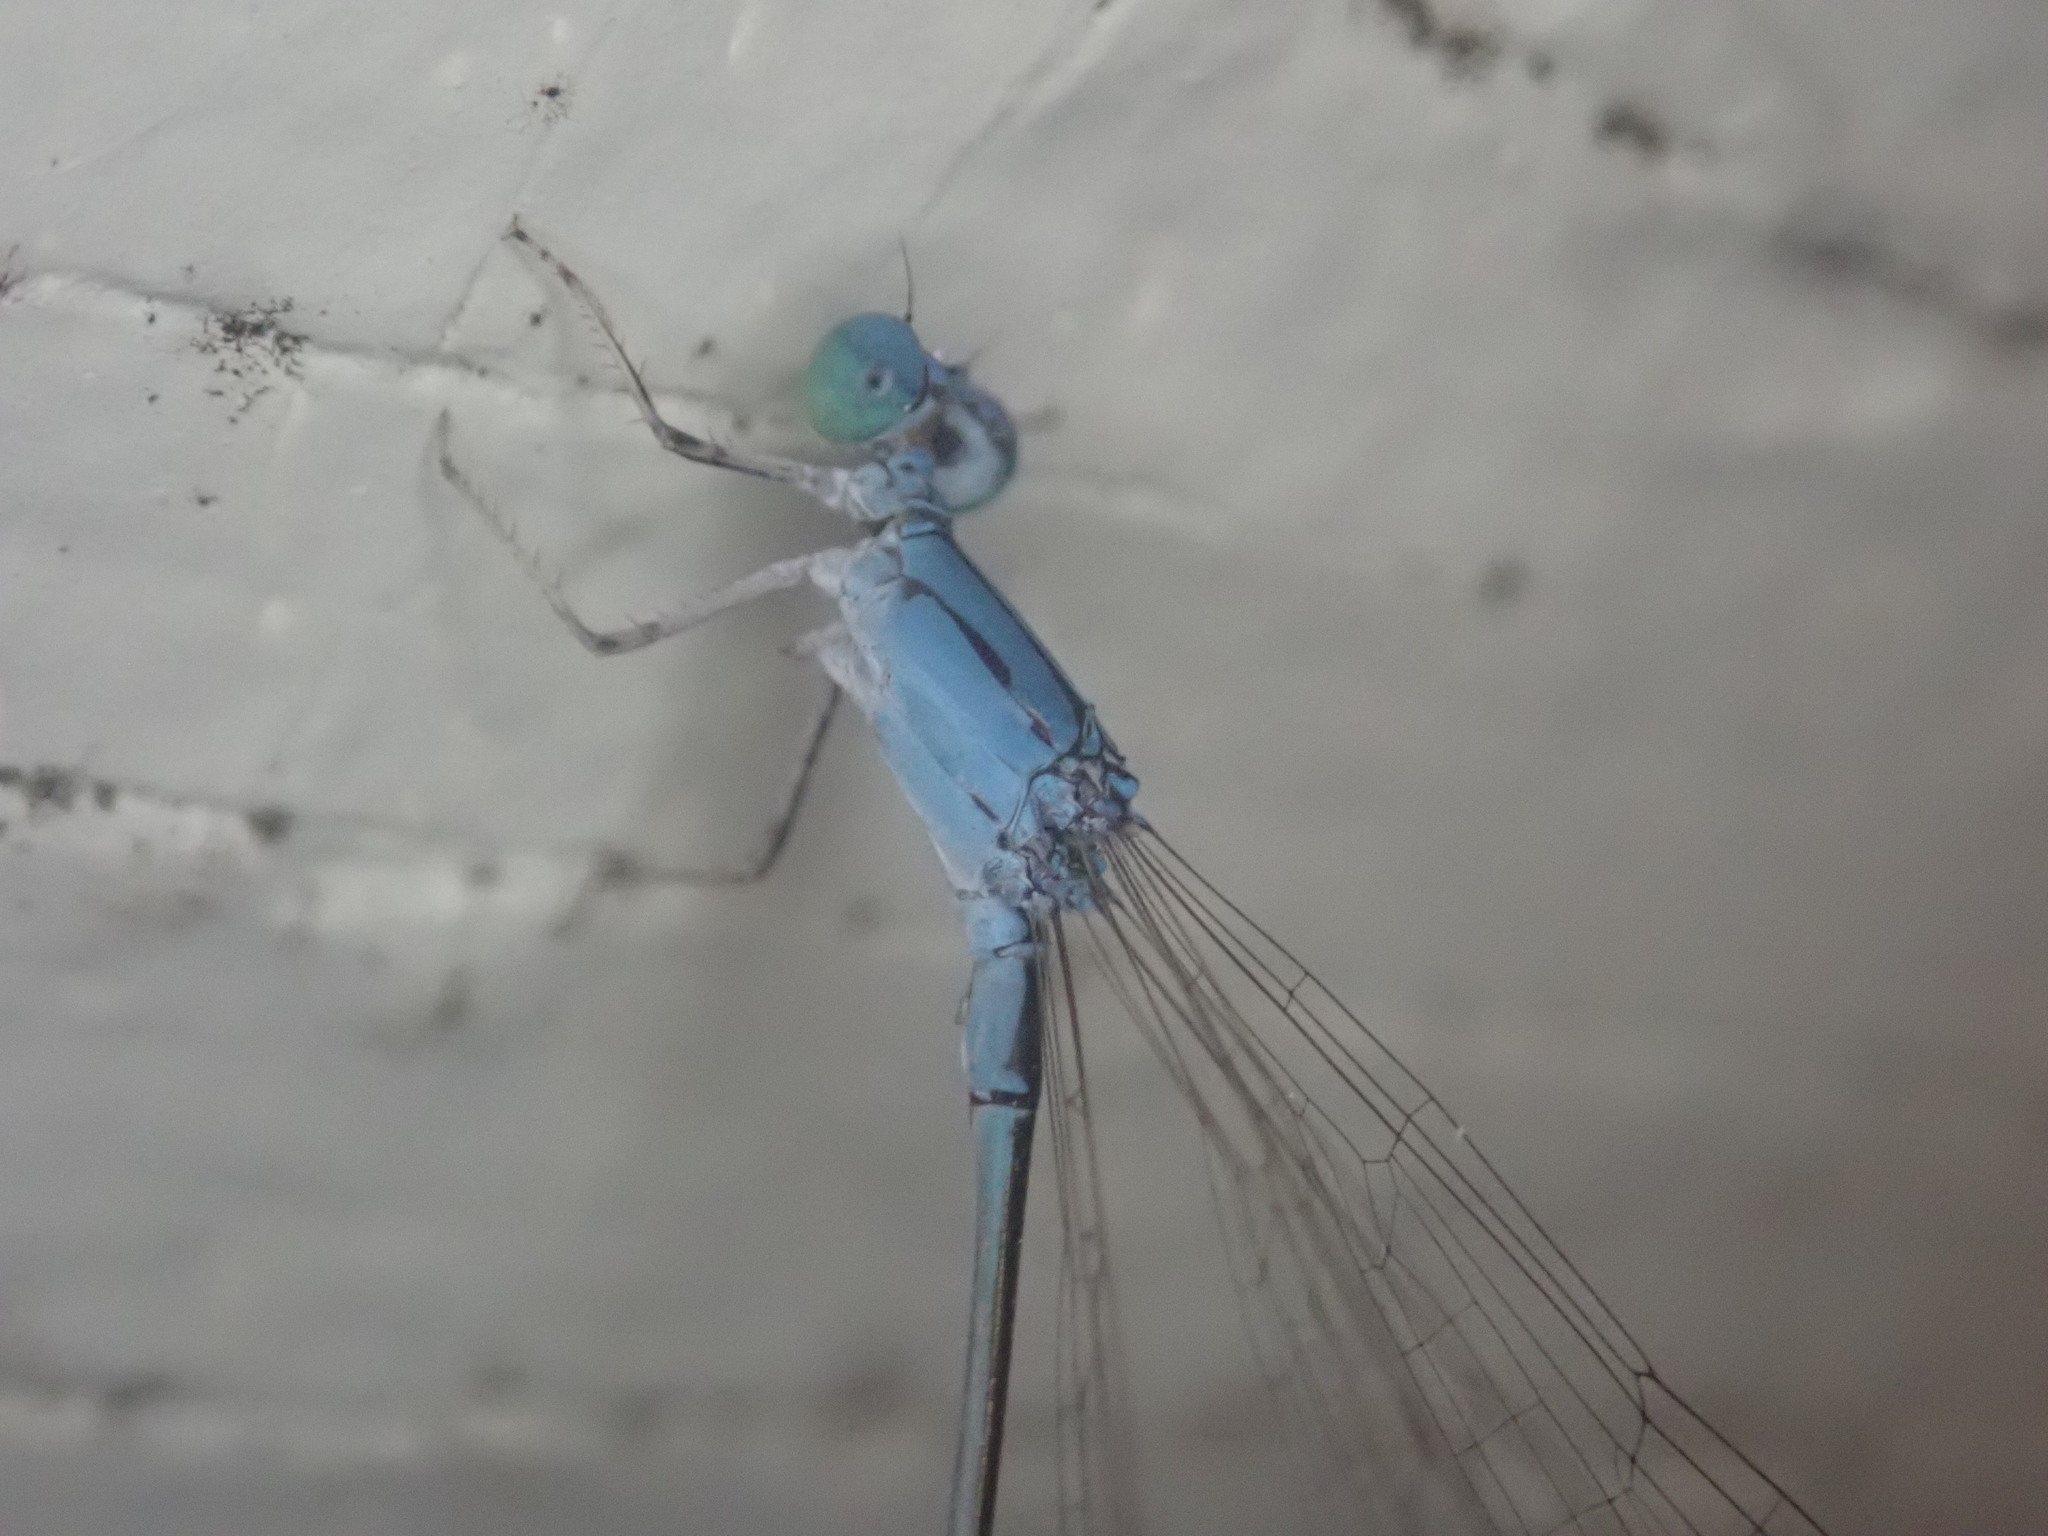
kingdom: Animalia
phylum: Arthropoda
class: Insecta
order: Odonata
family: Coenagrionidae
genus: Enallagma
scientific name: Enallagma daeckii
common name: Attenuated bluet
